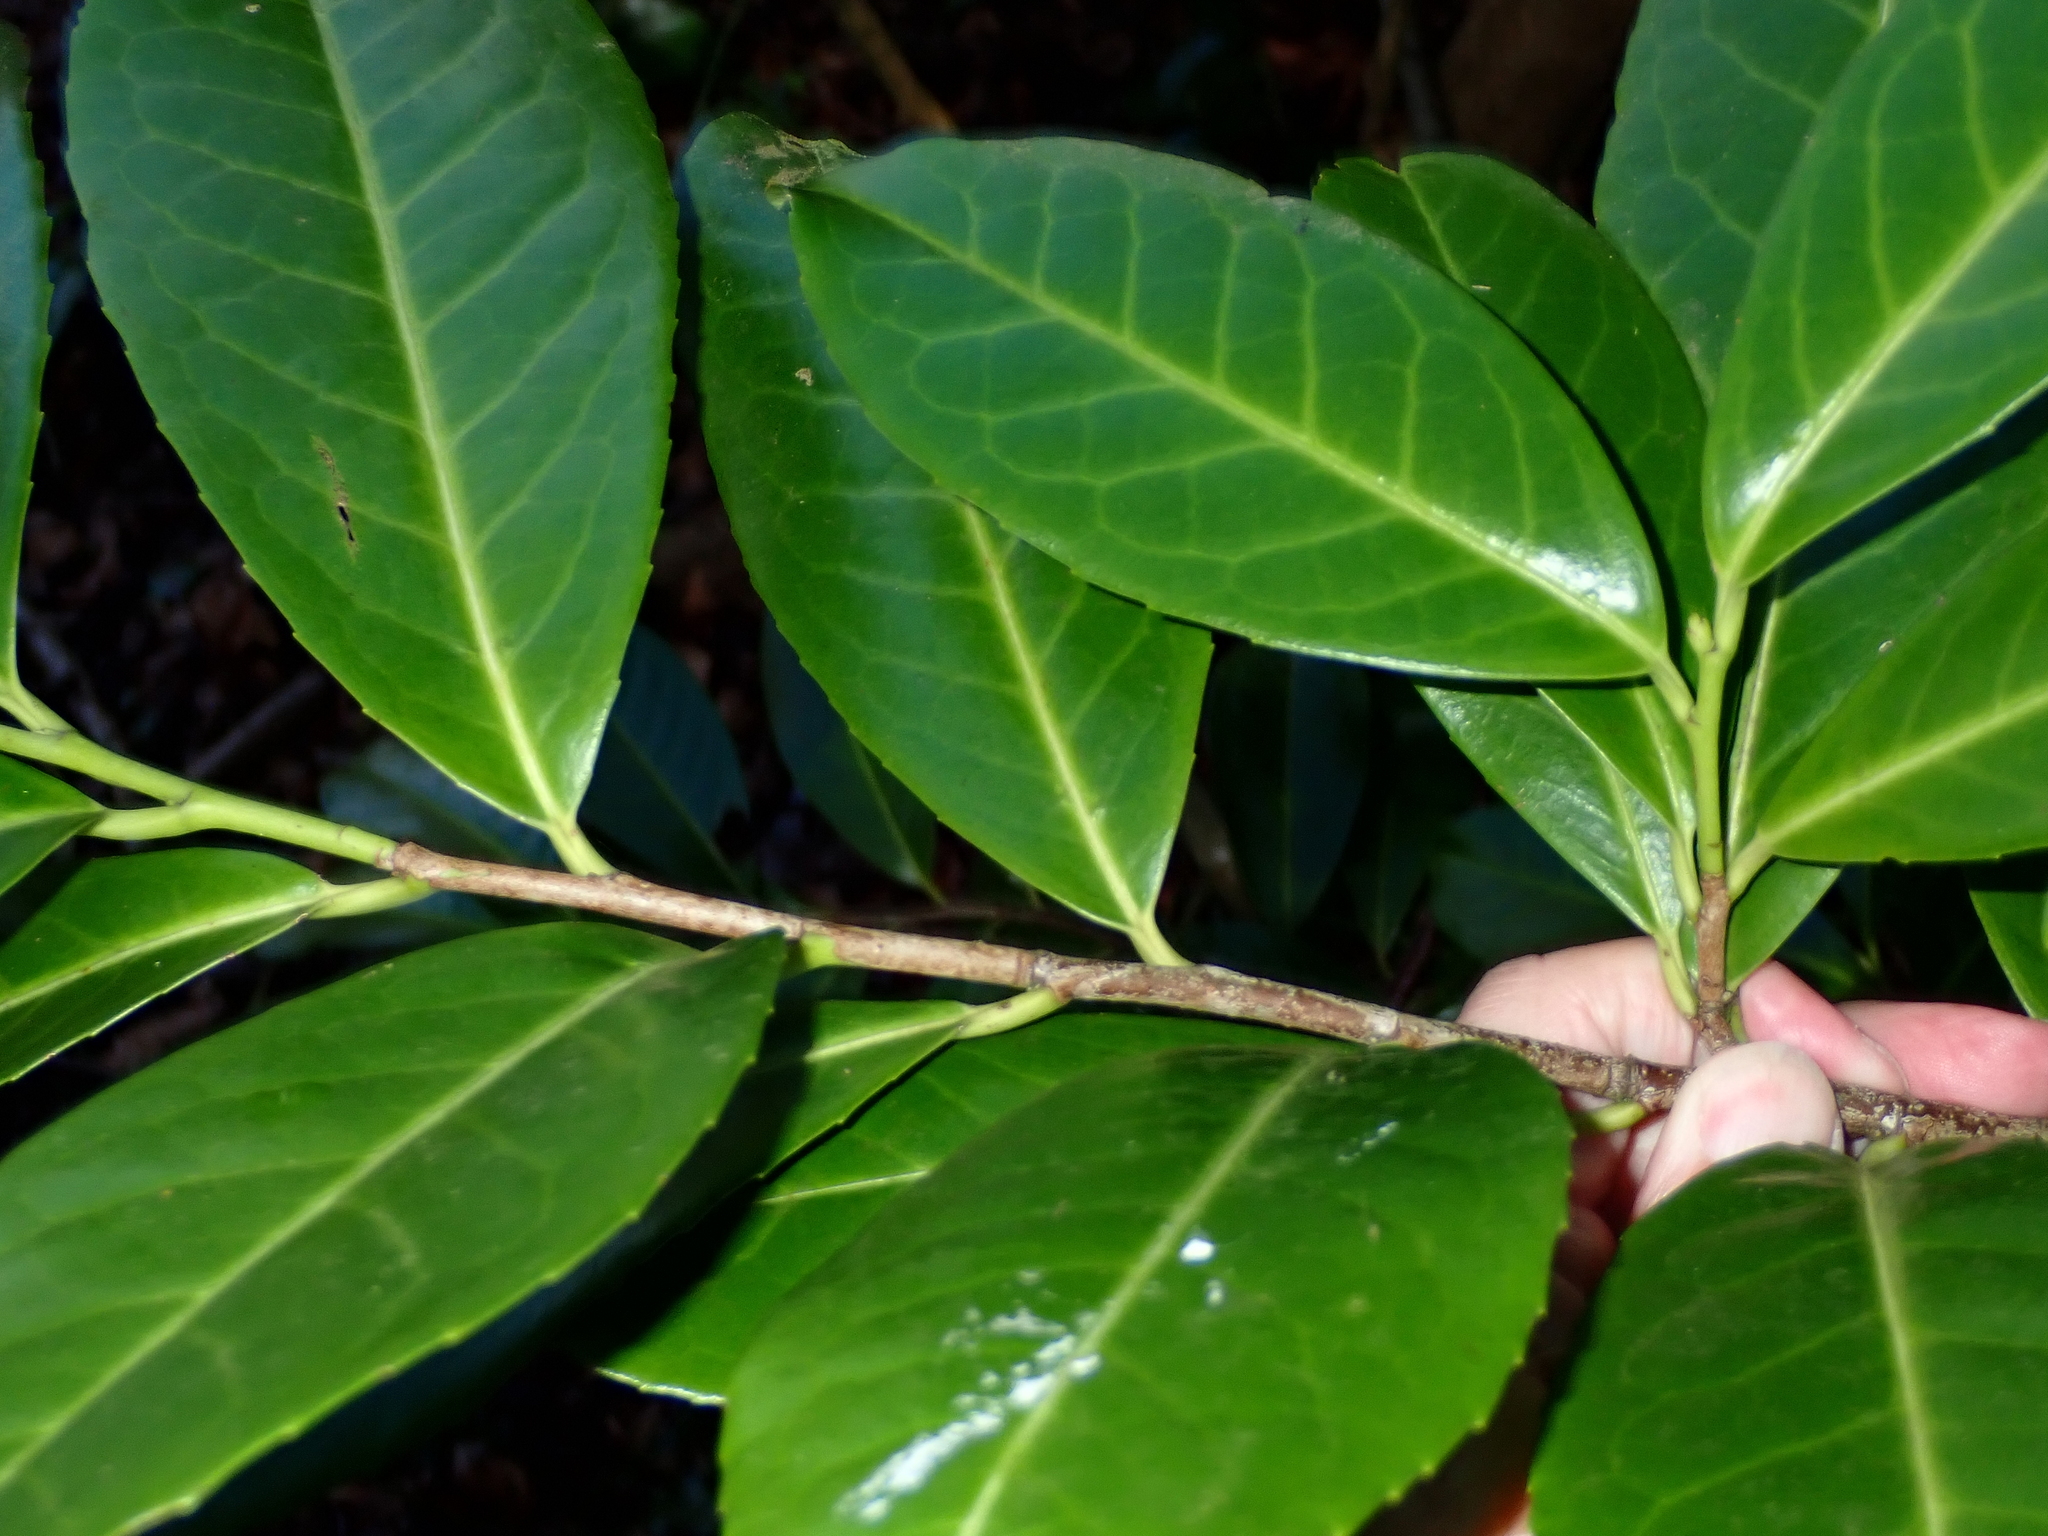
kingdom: Plantae
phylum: Tracheophyta
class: Magnoliopsida
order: Rosales
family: Rosaceae
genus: Prunus
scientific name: Prunus laurocerasus
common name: Cherry laurel
